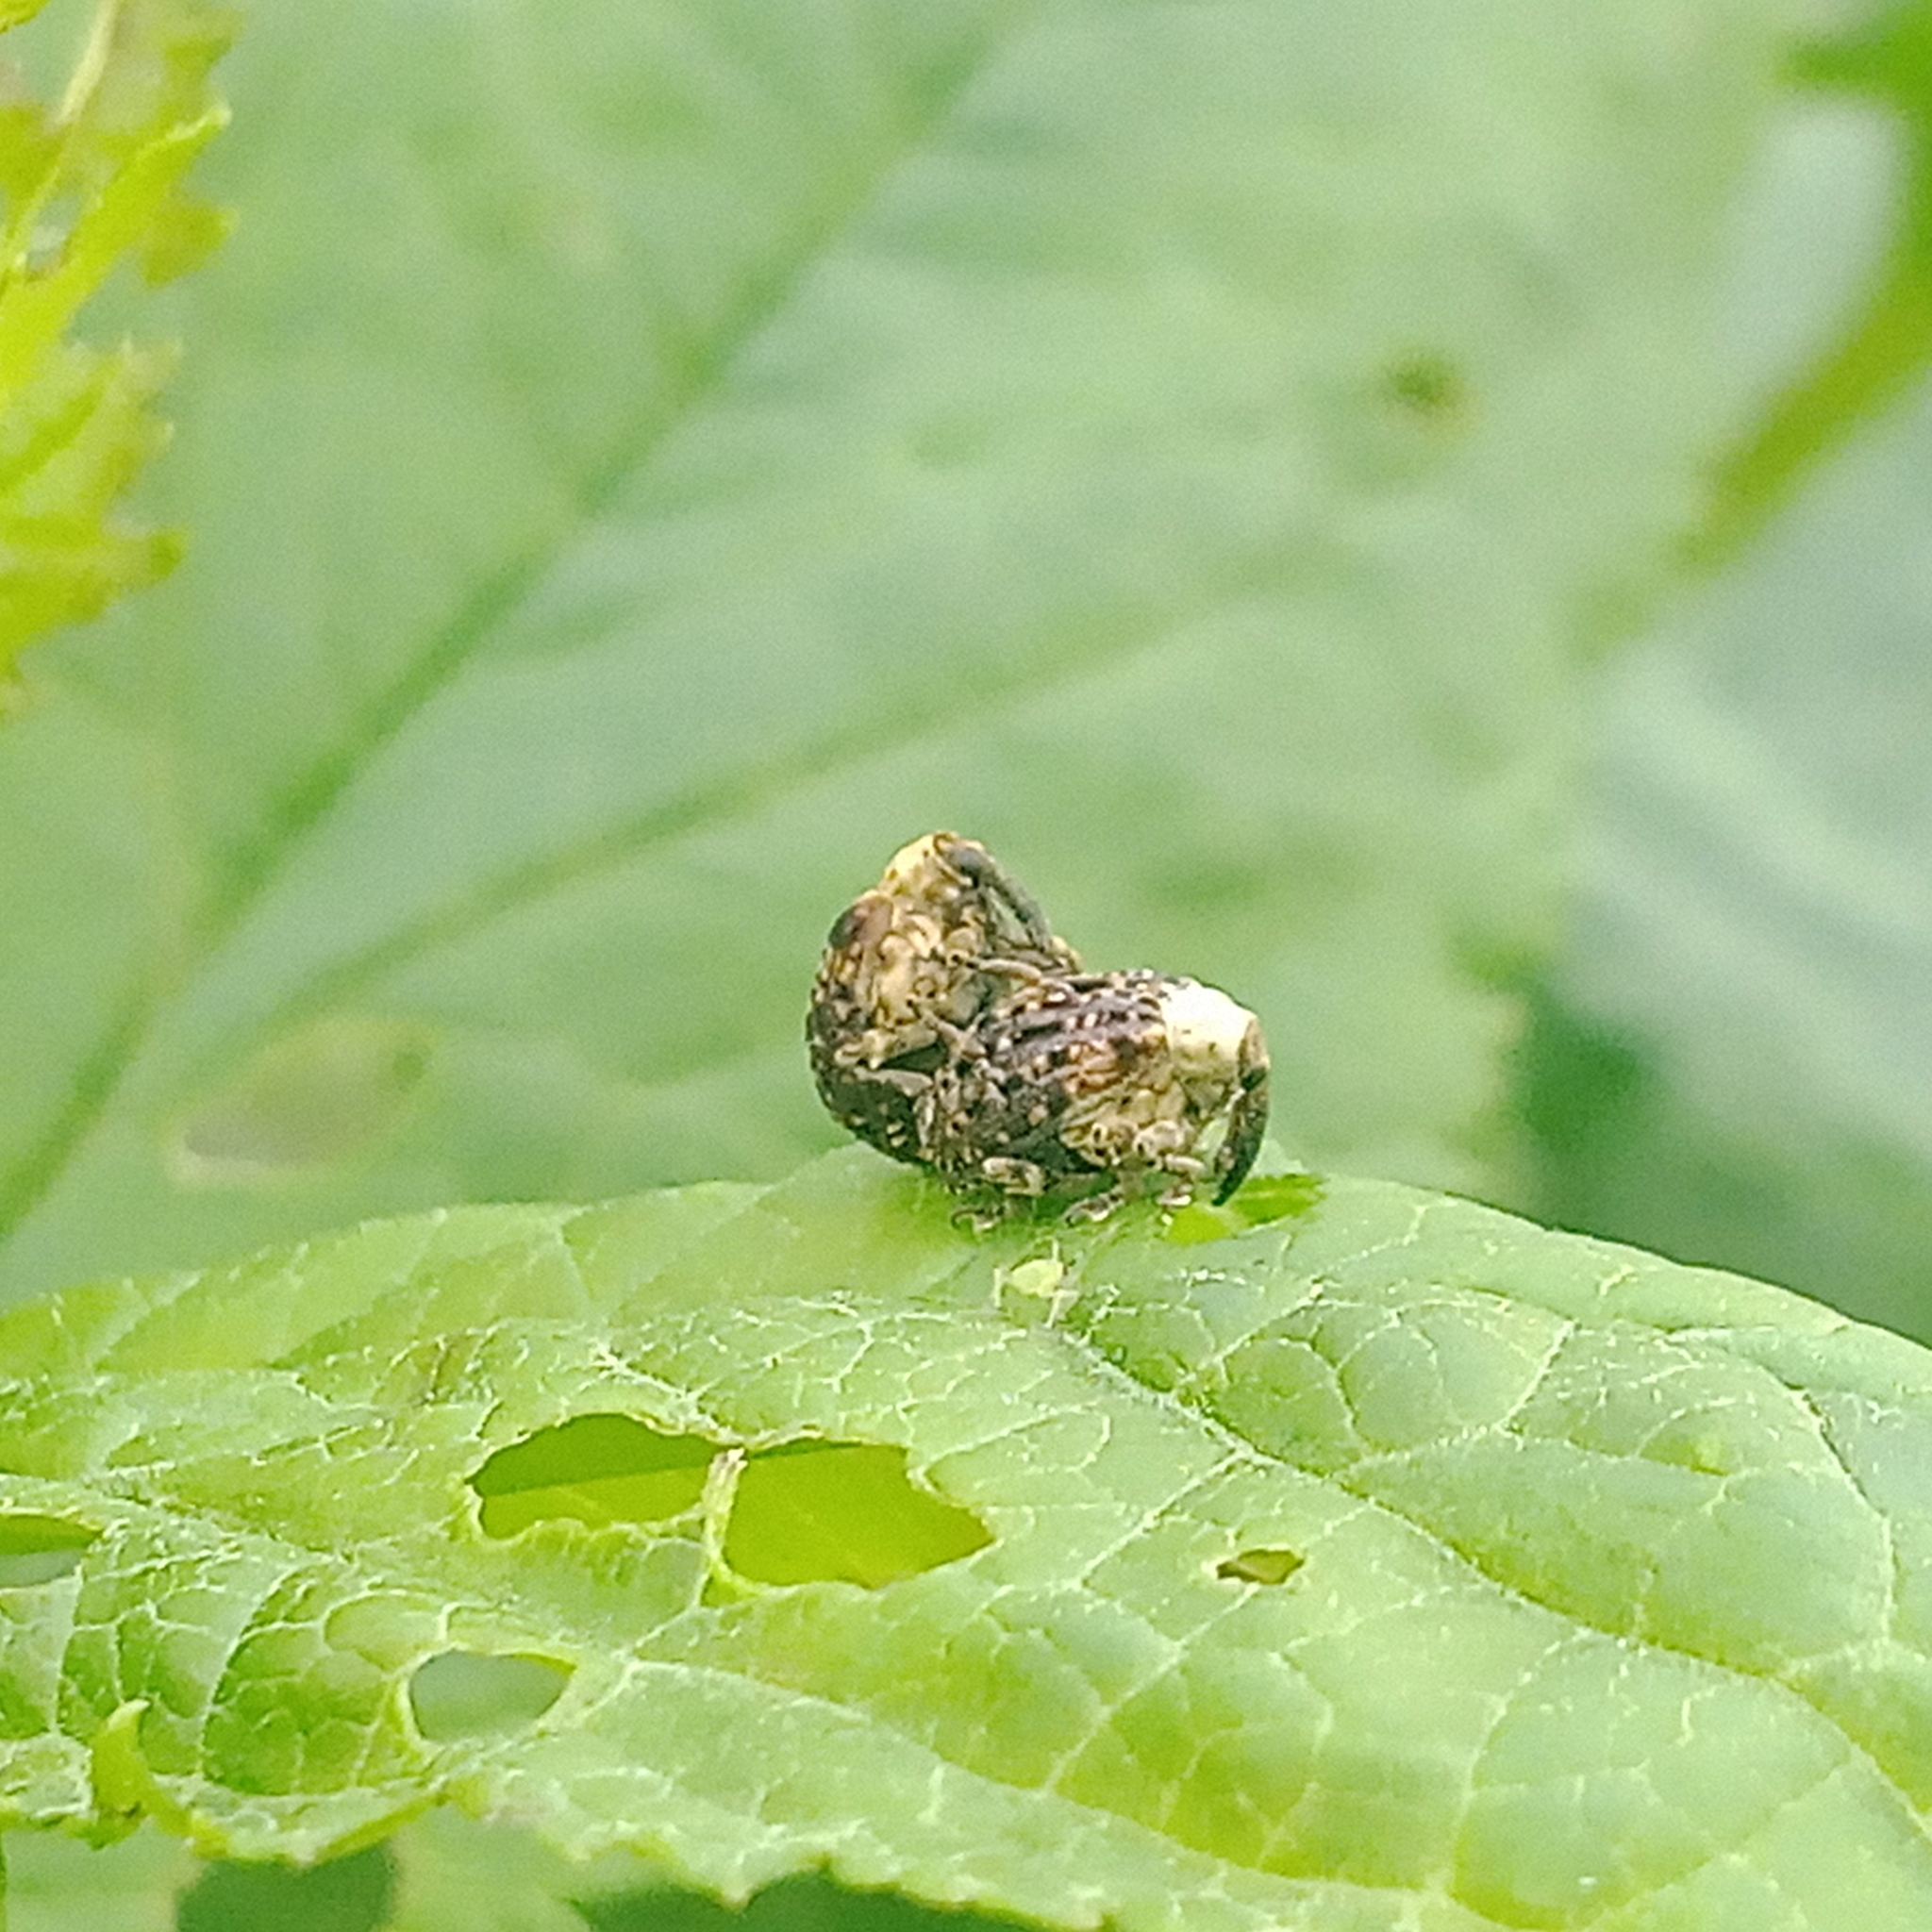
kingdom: Animalia
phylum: Arthropoda
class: Insecta
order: Coleoptera
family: Curculionidae
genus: Cionus
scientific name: Cionus scrophulariae
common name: Common figwort weevil
